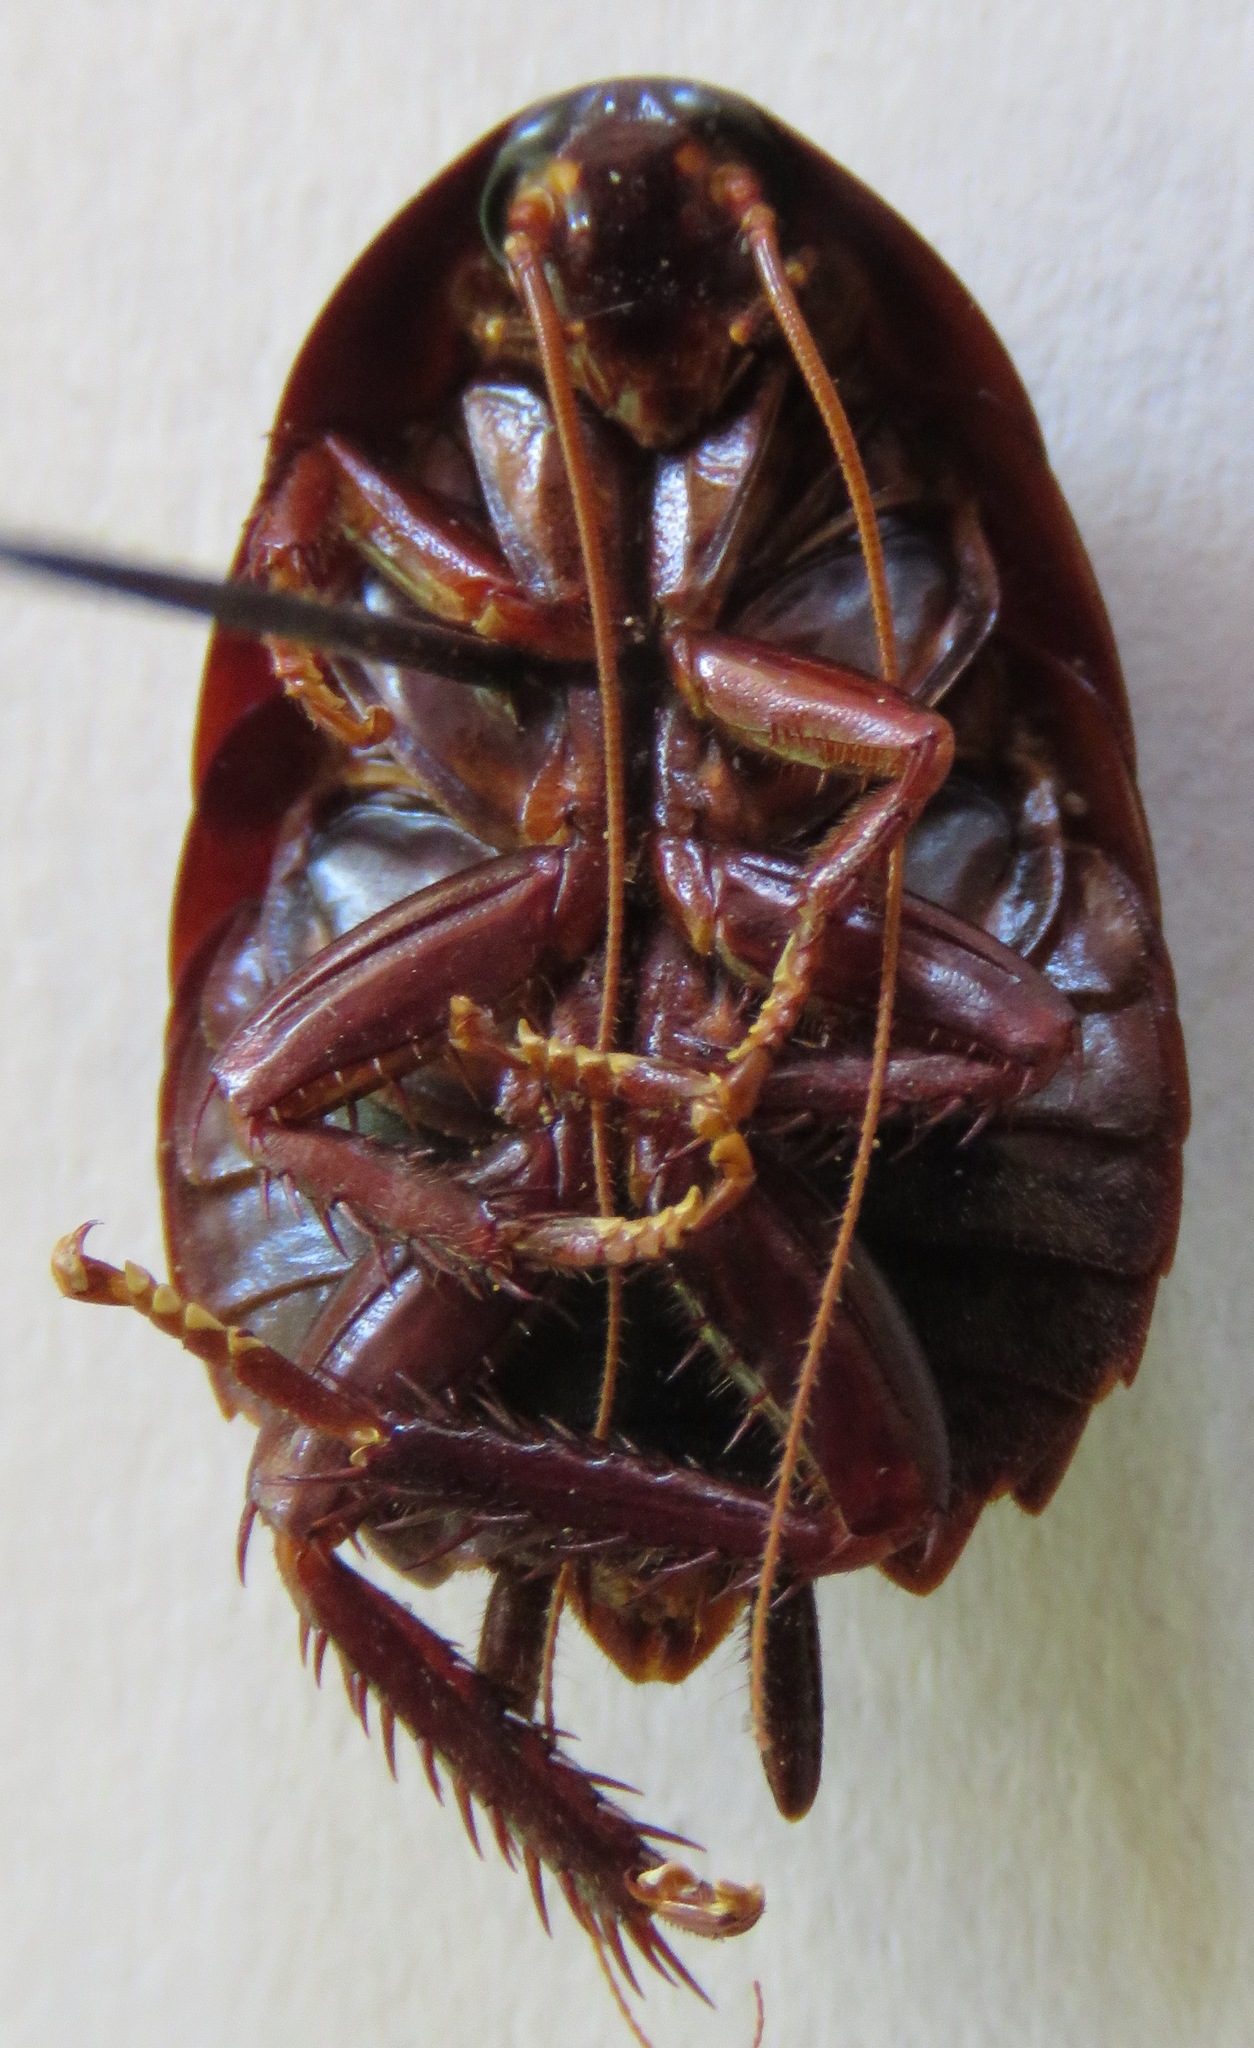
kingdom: Animalia
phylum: Arthropoda
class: Insecta
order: Blattodea
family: Ectobiidae
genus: Nyctibora
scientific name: Nyctibora noctivaga
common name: Great brown cockroach
